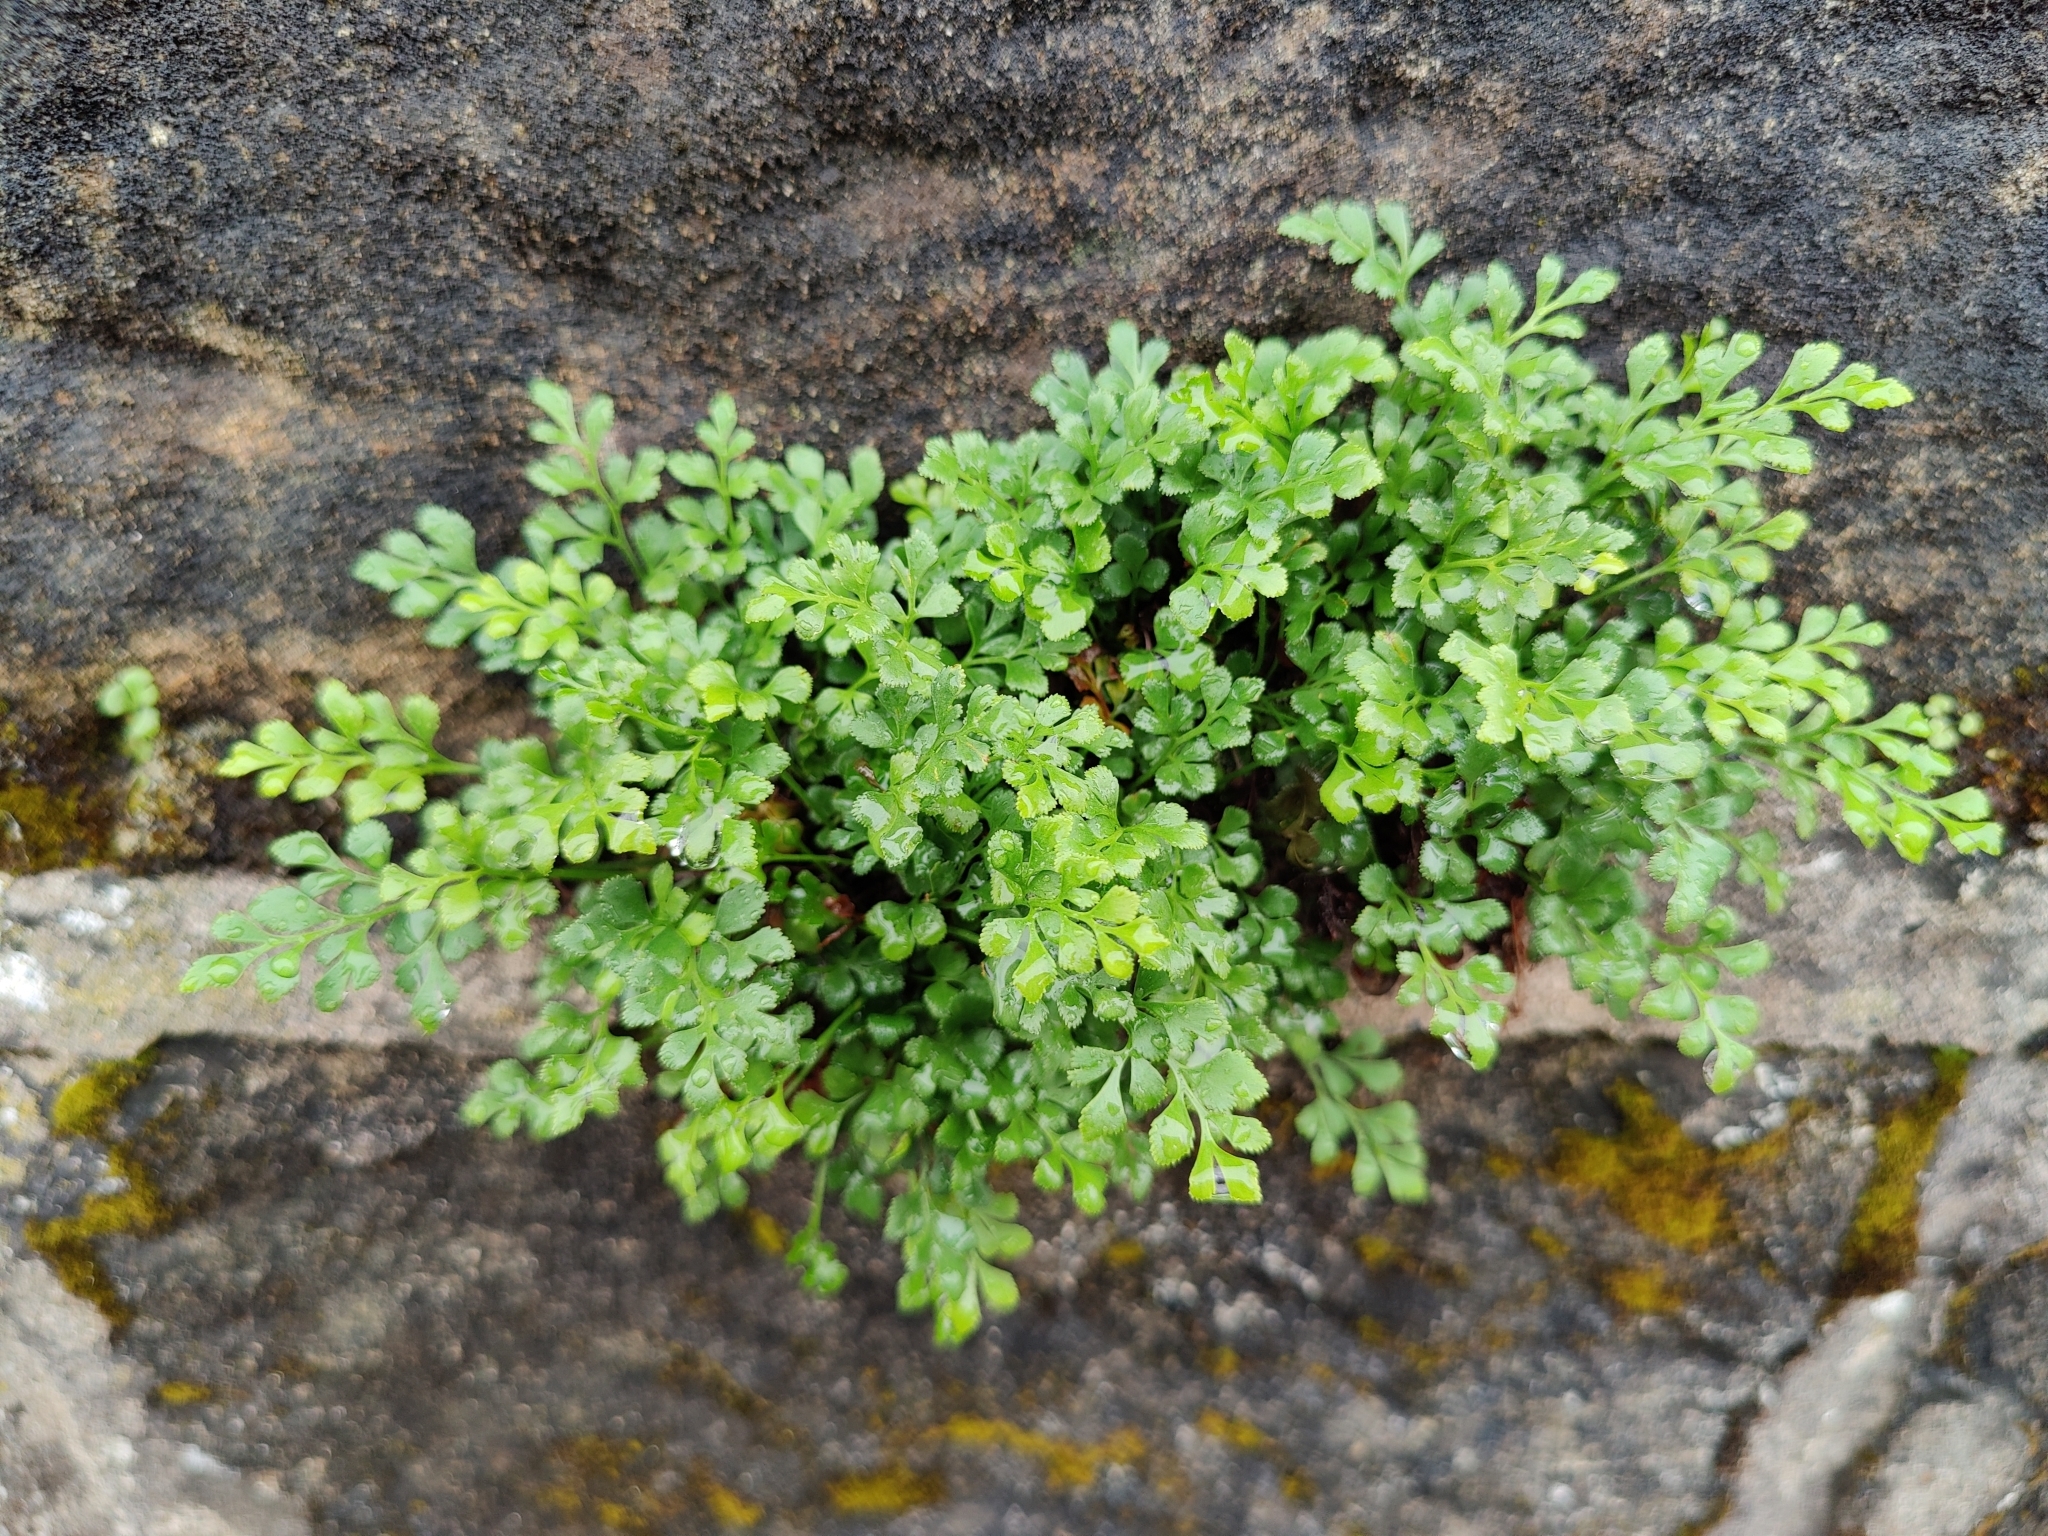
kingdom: Plantae
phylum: Tracheophyta
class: Polypodiopsida
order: Polypodiales
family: Aspleniaceae
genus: Asplenium
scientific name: Asplenium ruta-muraria
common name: Wall-rue
